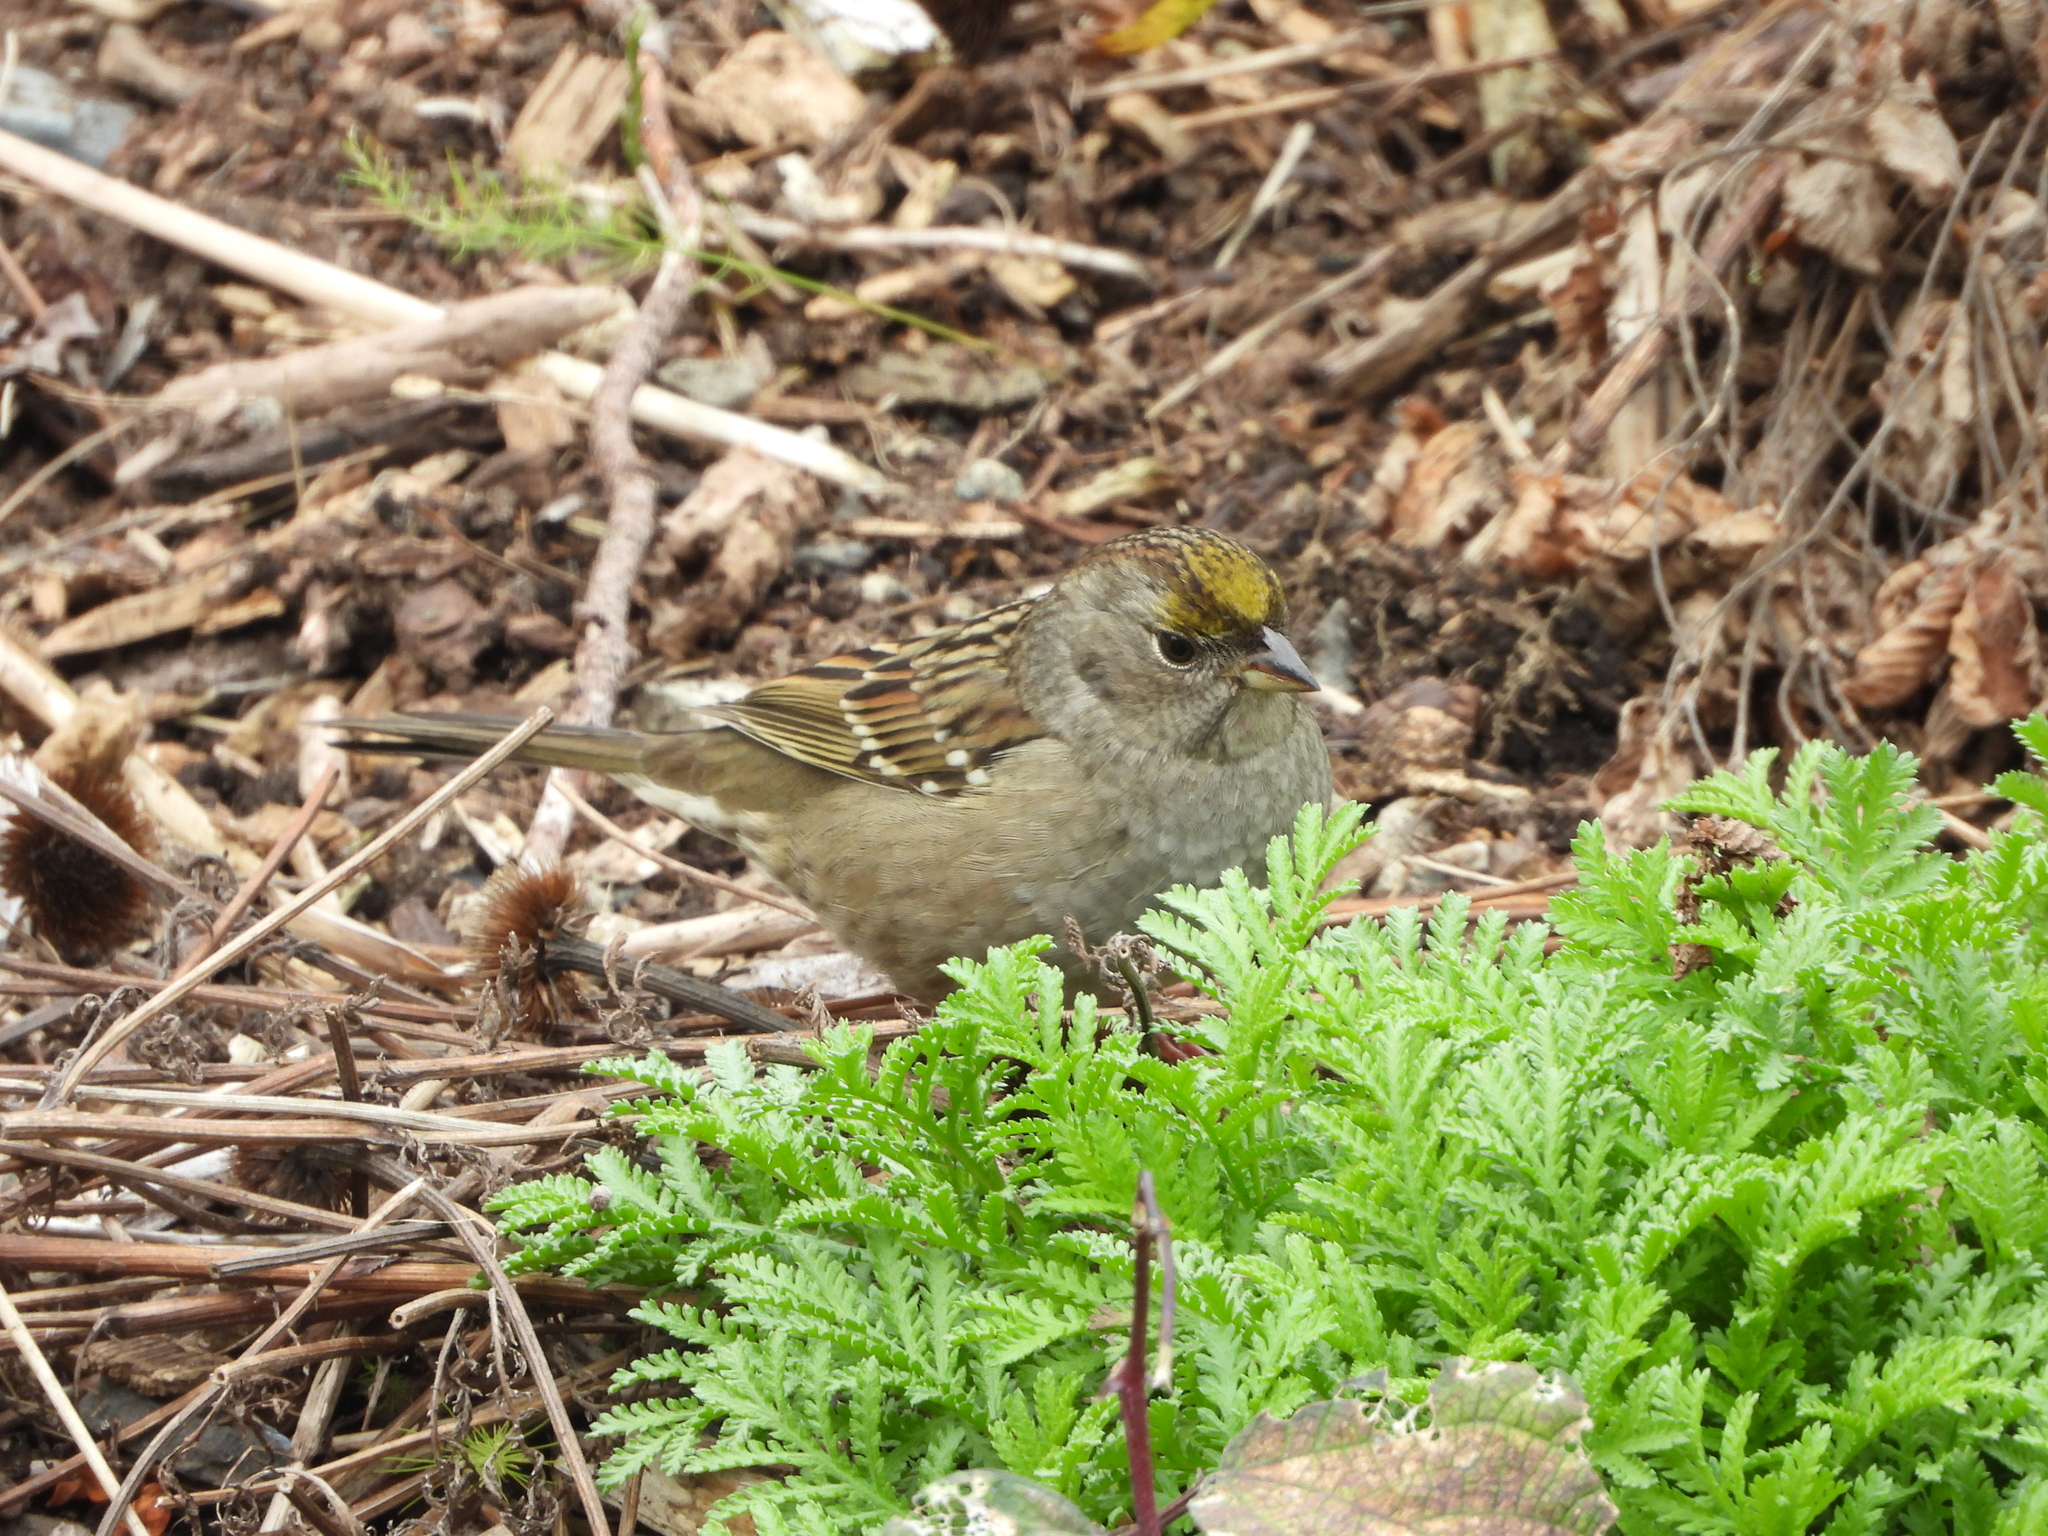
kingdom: Animalia
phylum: Chordata
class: Aves
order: Passeriformes
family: Passerellidae
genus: Zonotrichia
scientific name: Zonotrichia atricapilla
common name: Golden-crowned sparrow
